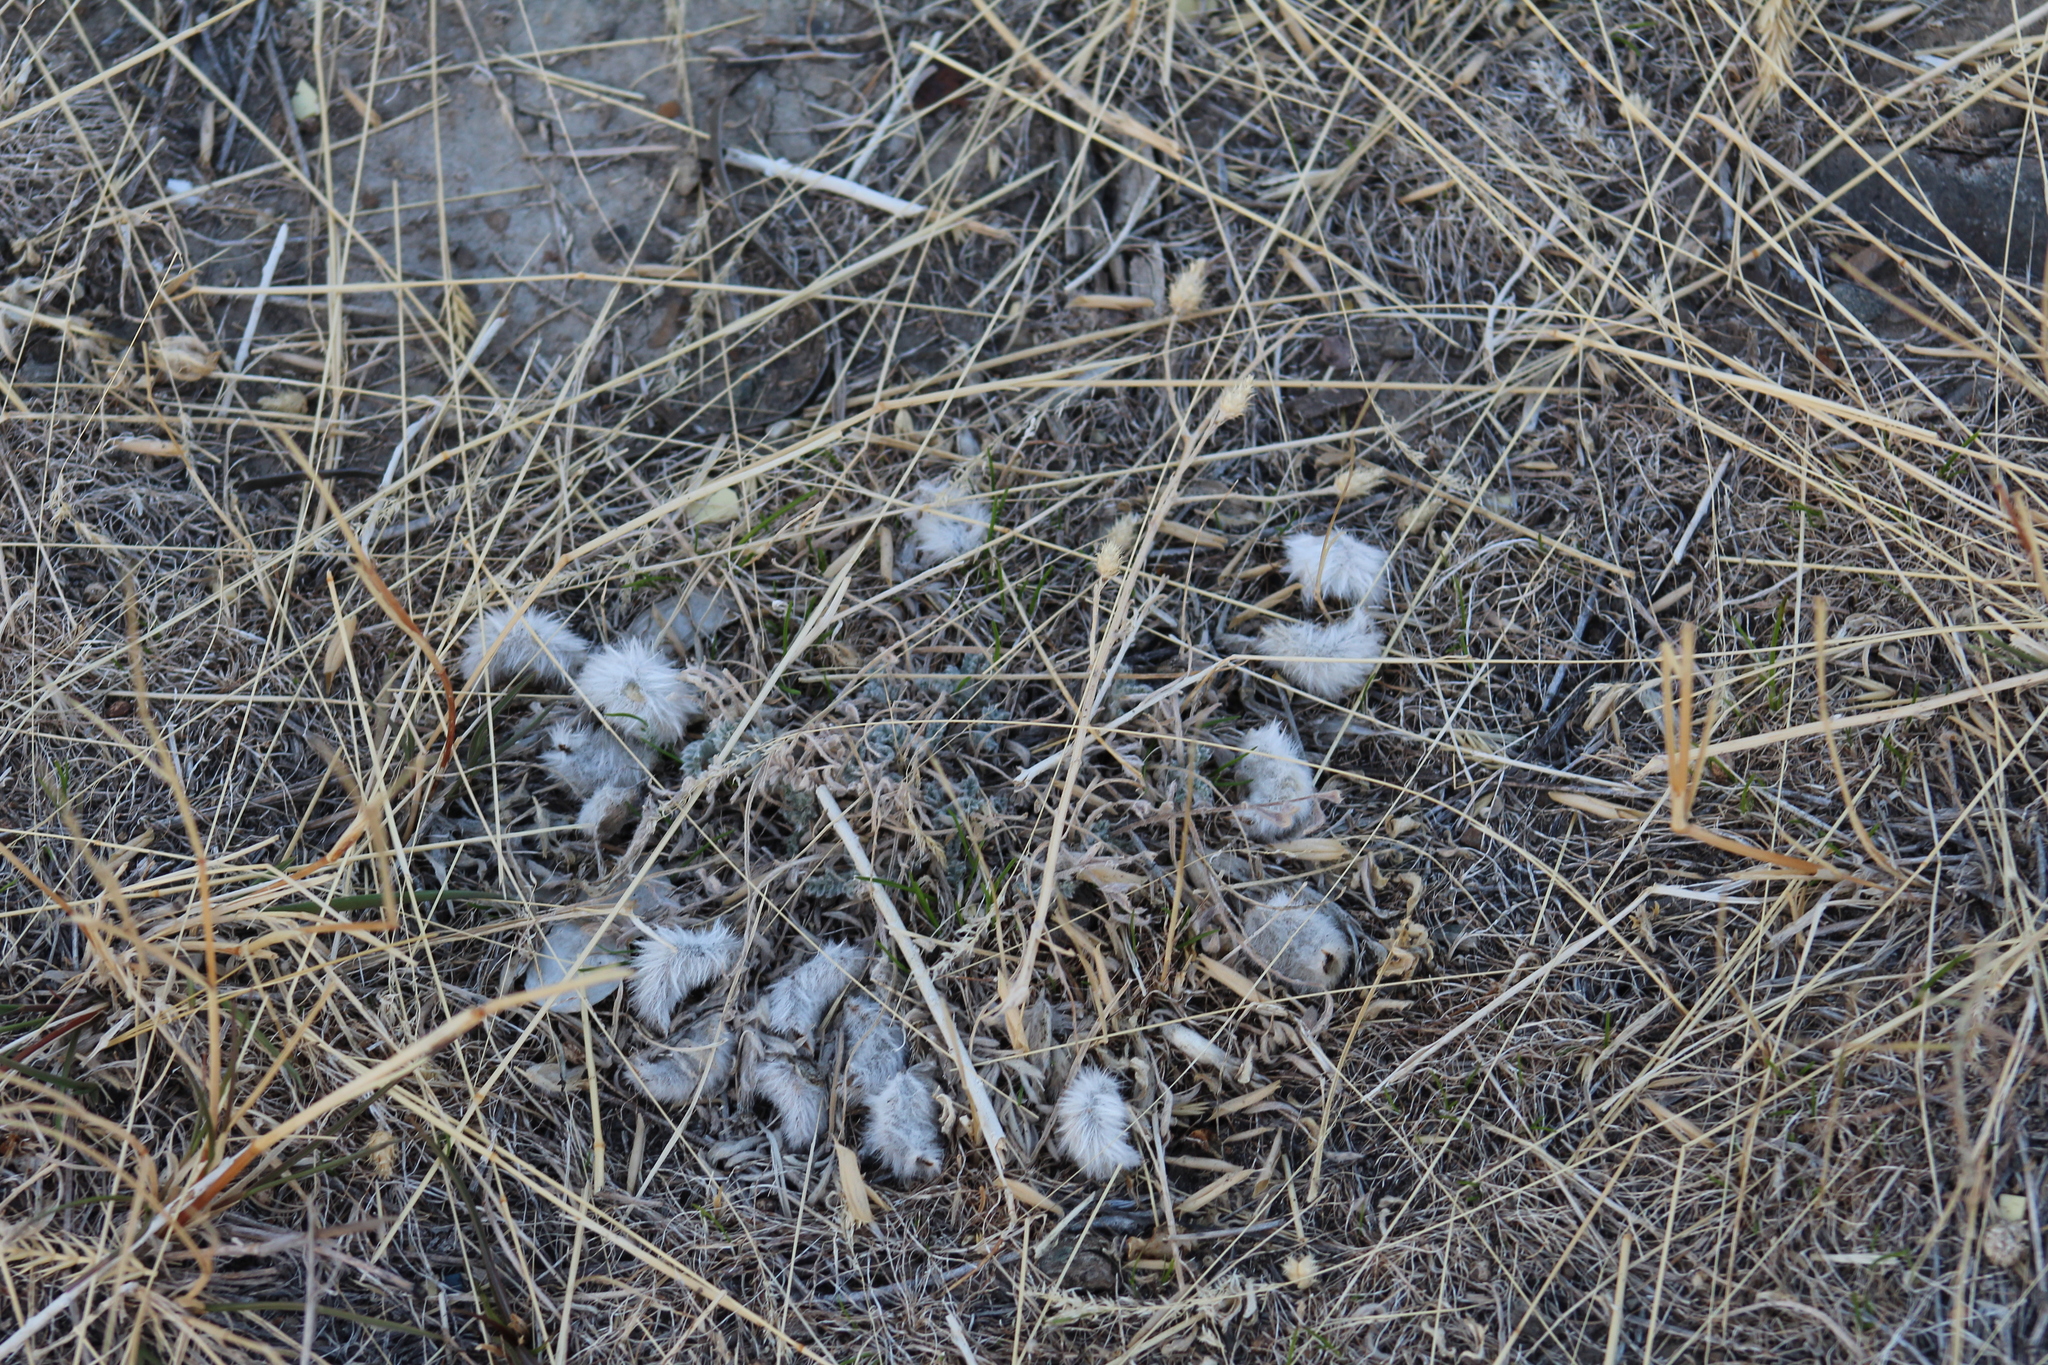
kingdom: Plantae
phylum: Tracheophyta
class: Magnoliopsida
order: Fabales
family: Fabaceae
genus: Astragalus
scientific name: Astragalus purshii
